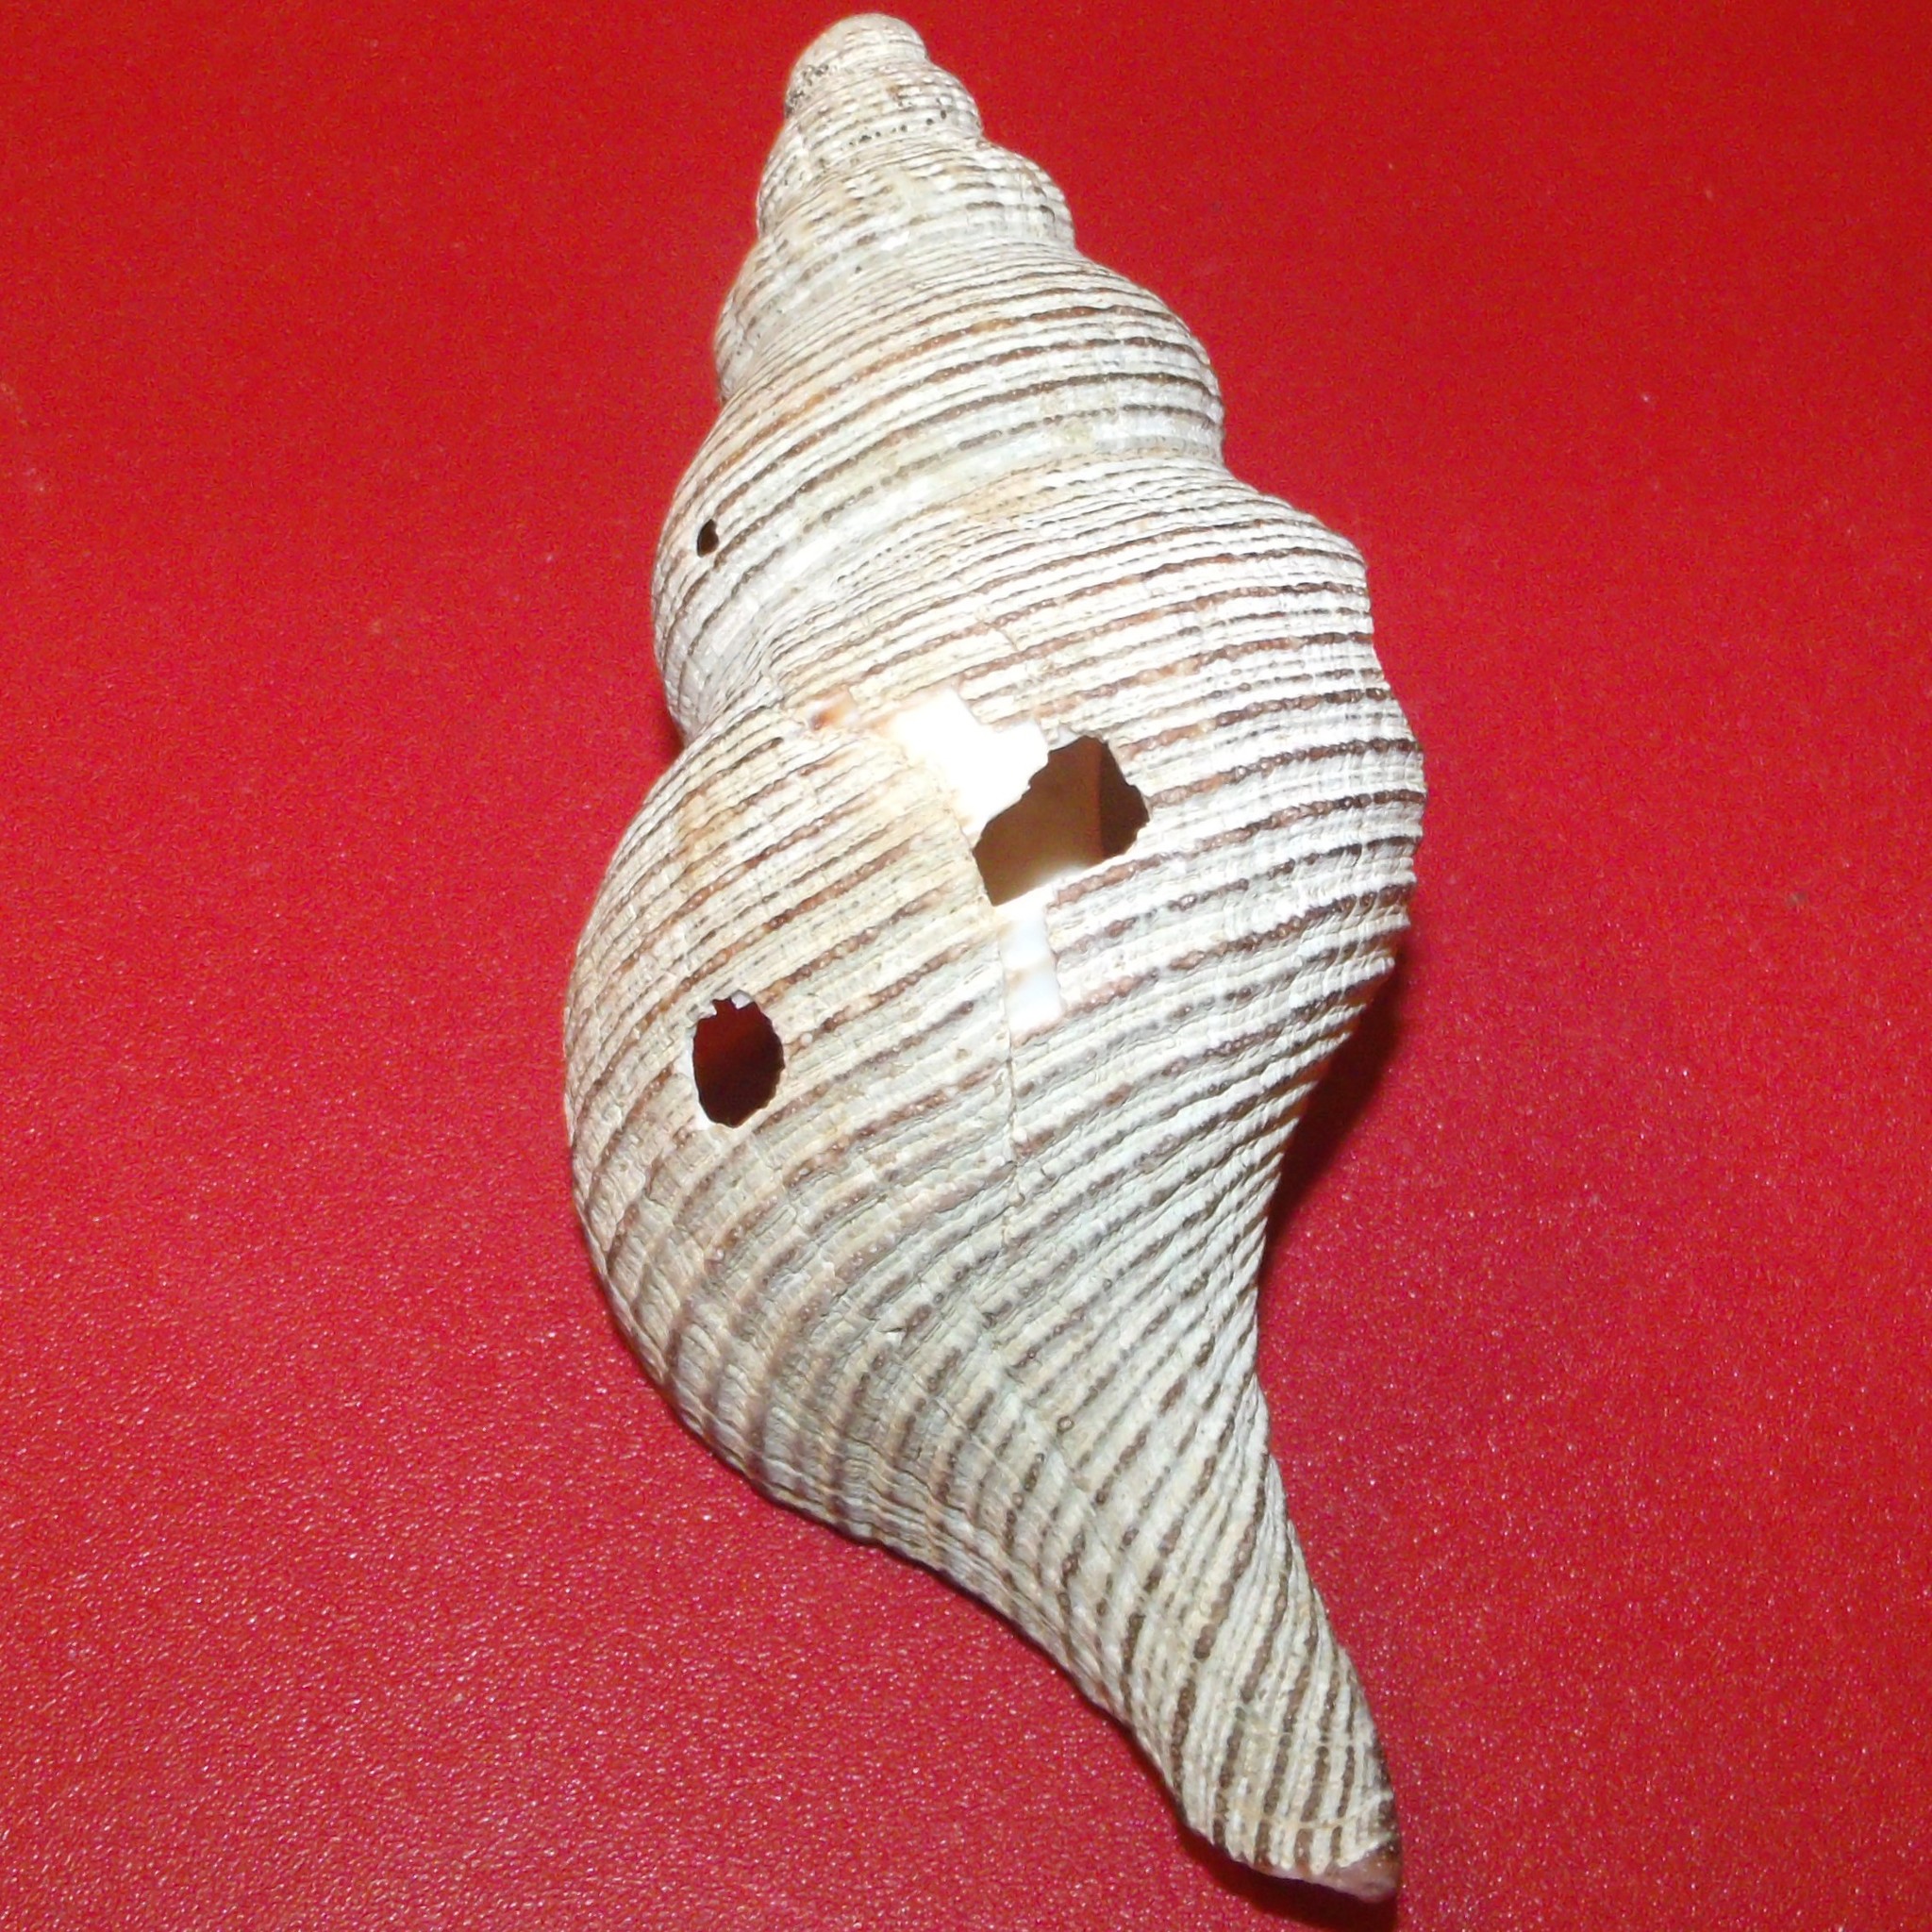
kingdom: Animalia
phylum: Mollusca
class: Gastropoda
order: Neogastropoda
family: Austrosiphonidae
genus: Penion
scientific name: Penion sulcatus
